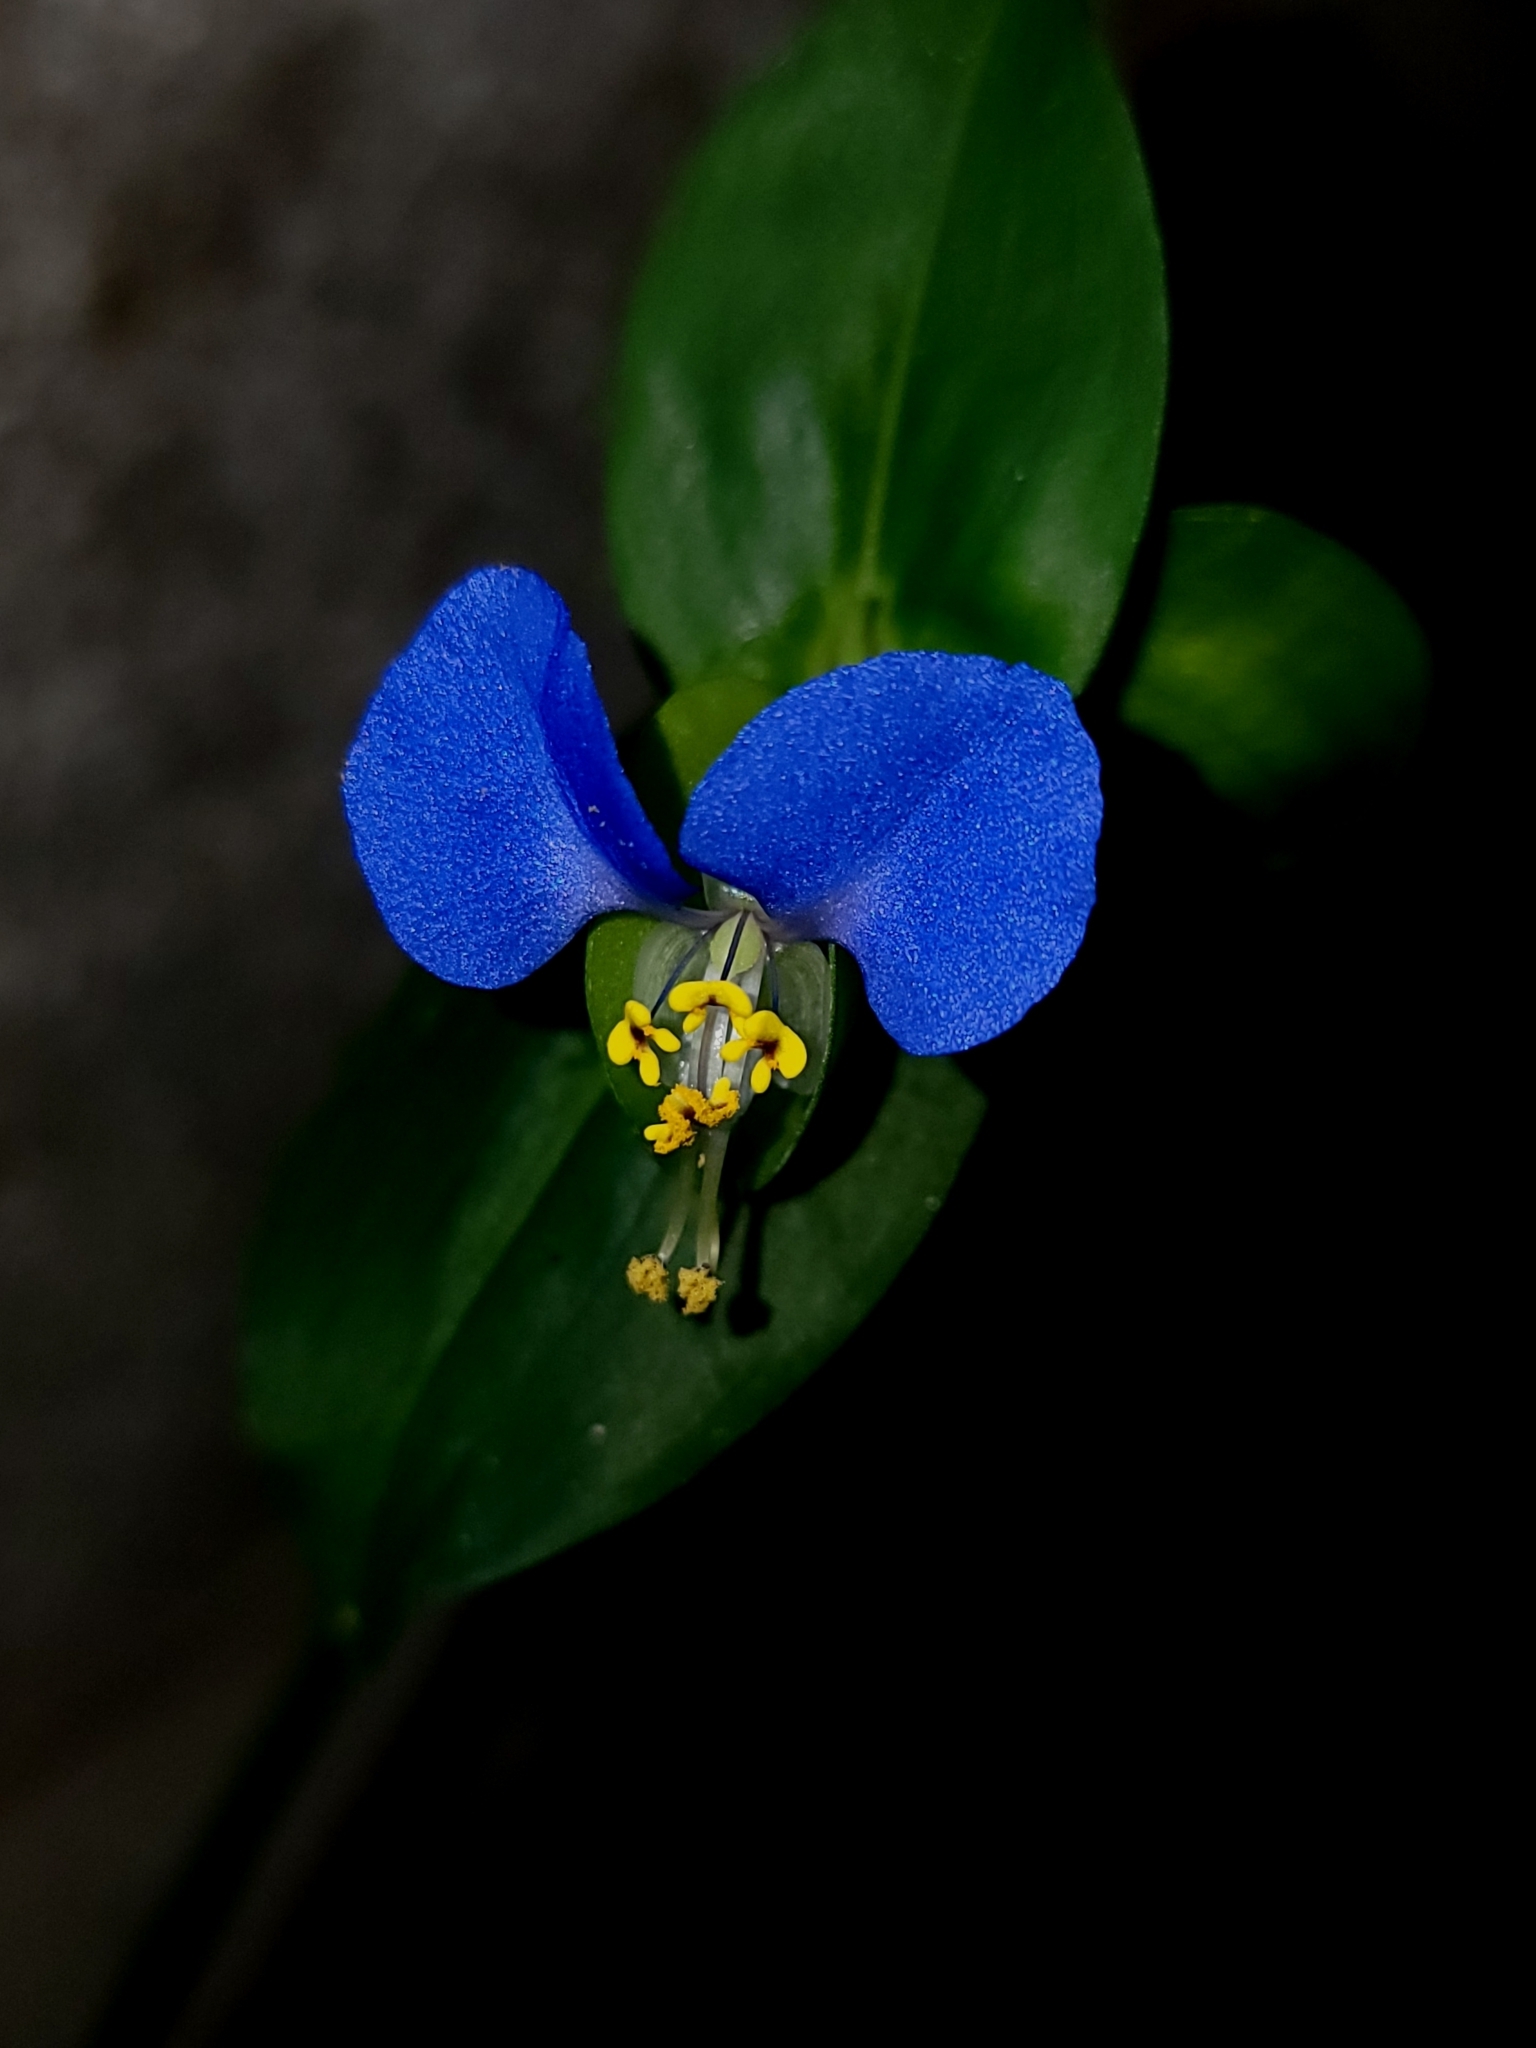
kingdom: Plantae
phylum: Tracheophyta
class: Liliopsida
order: Commelinales
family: Commelinaceae
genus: Commelina
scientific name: Commelina communis
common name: Asiatic dayflower
